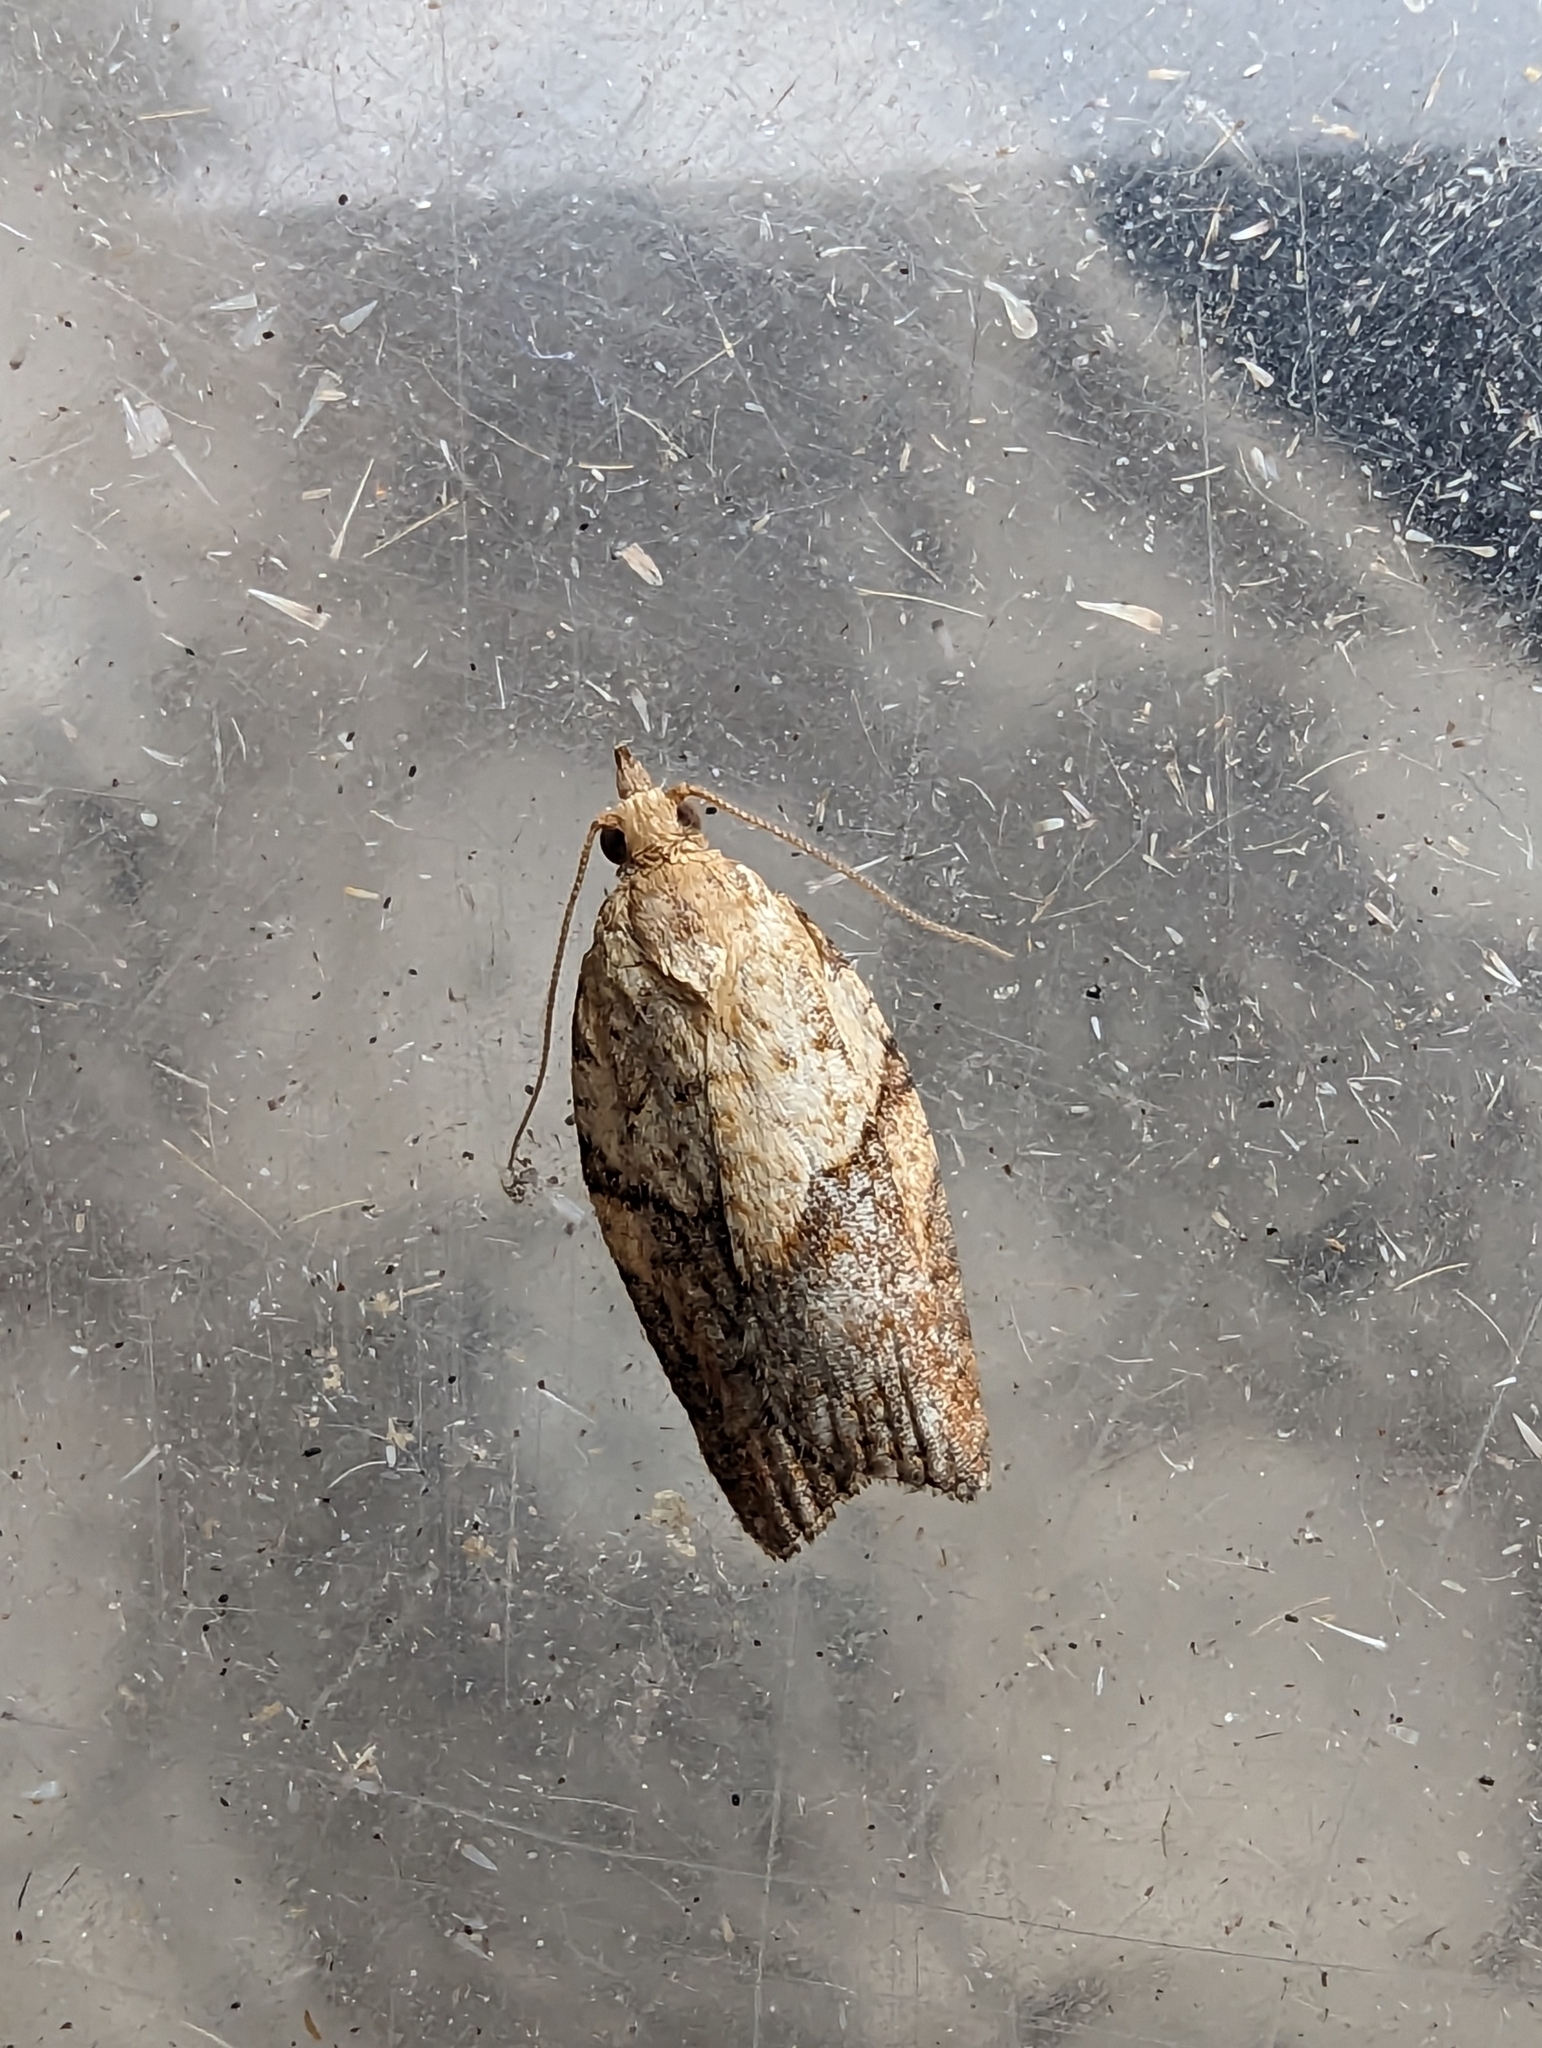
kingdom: Animalia
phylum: Arthropoda
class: Insecta
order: Lepidoptera
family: Tortricidae
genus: Epiphyas
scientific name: Epiphyas postvittana
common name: Light brown apple moth
